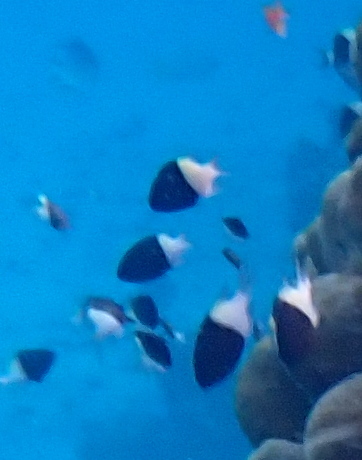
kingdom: Animalia
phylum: Chordata
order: Perciformes
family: Pomacentridae
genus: Chromis
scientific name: Chromis dimidiata
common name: Half-and-half chromis
